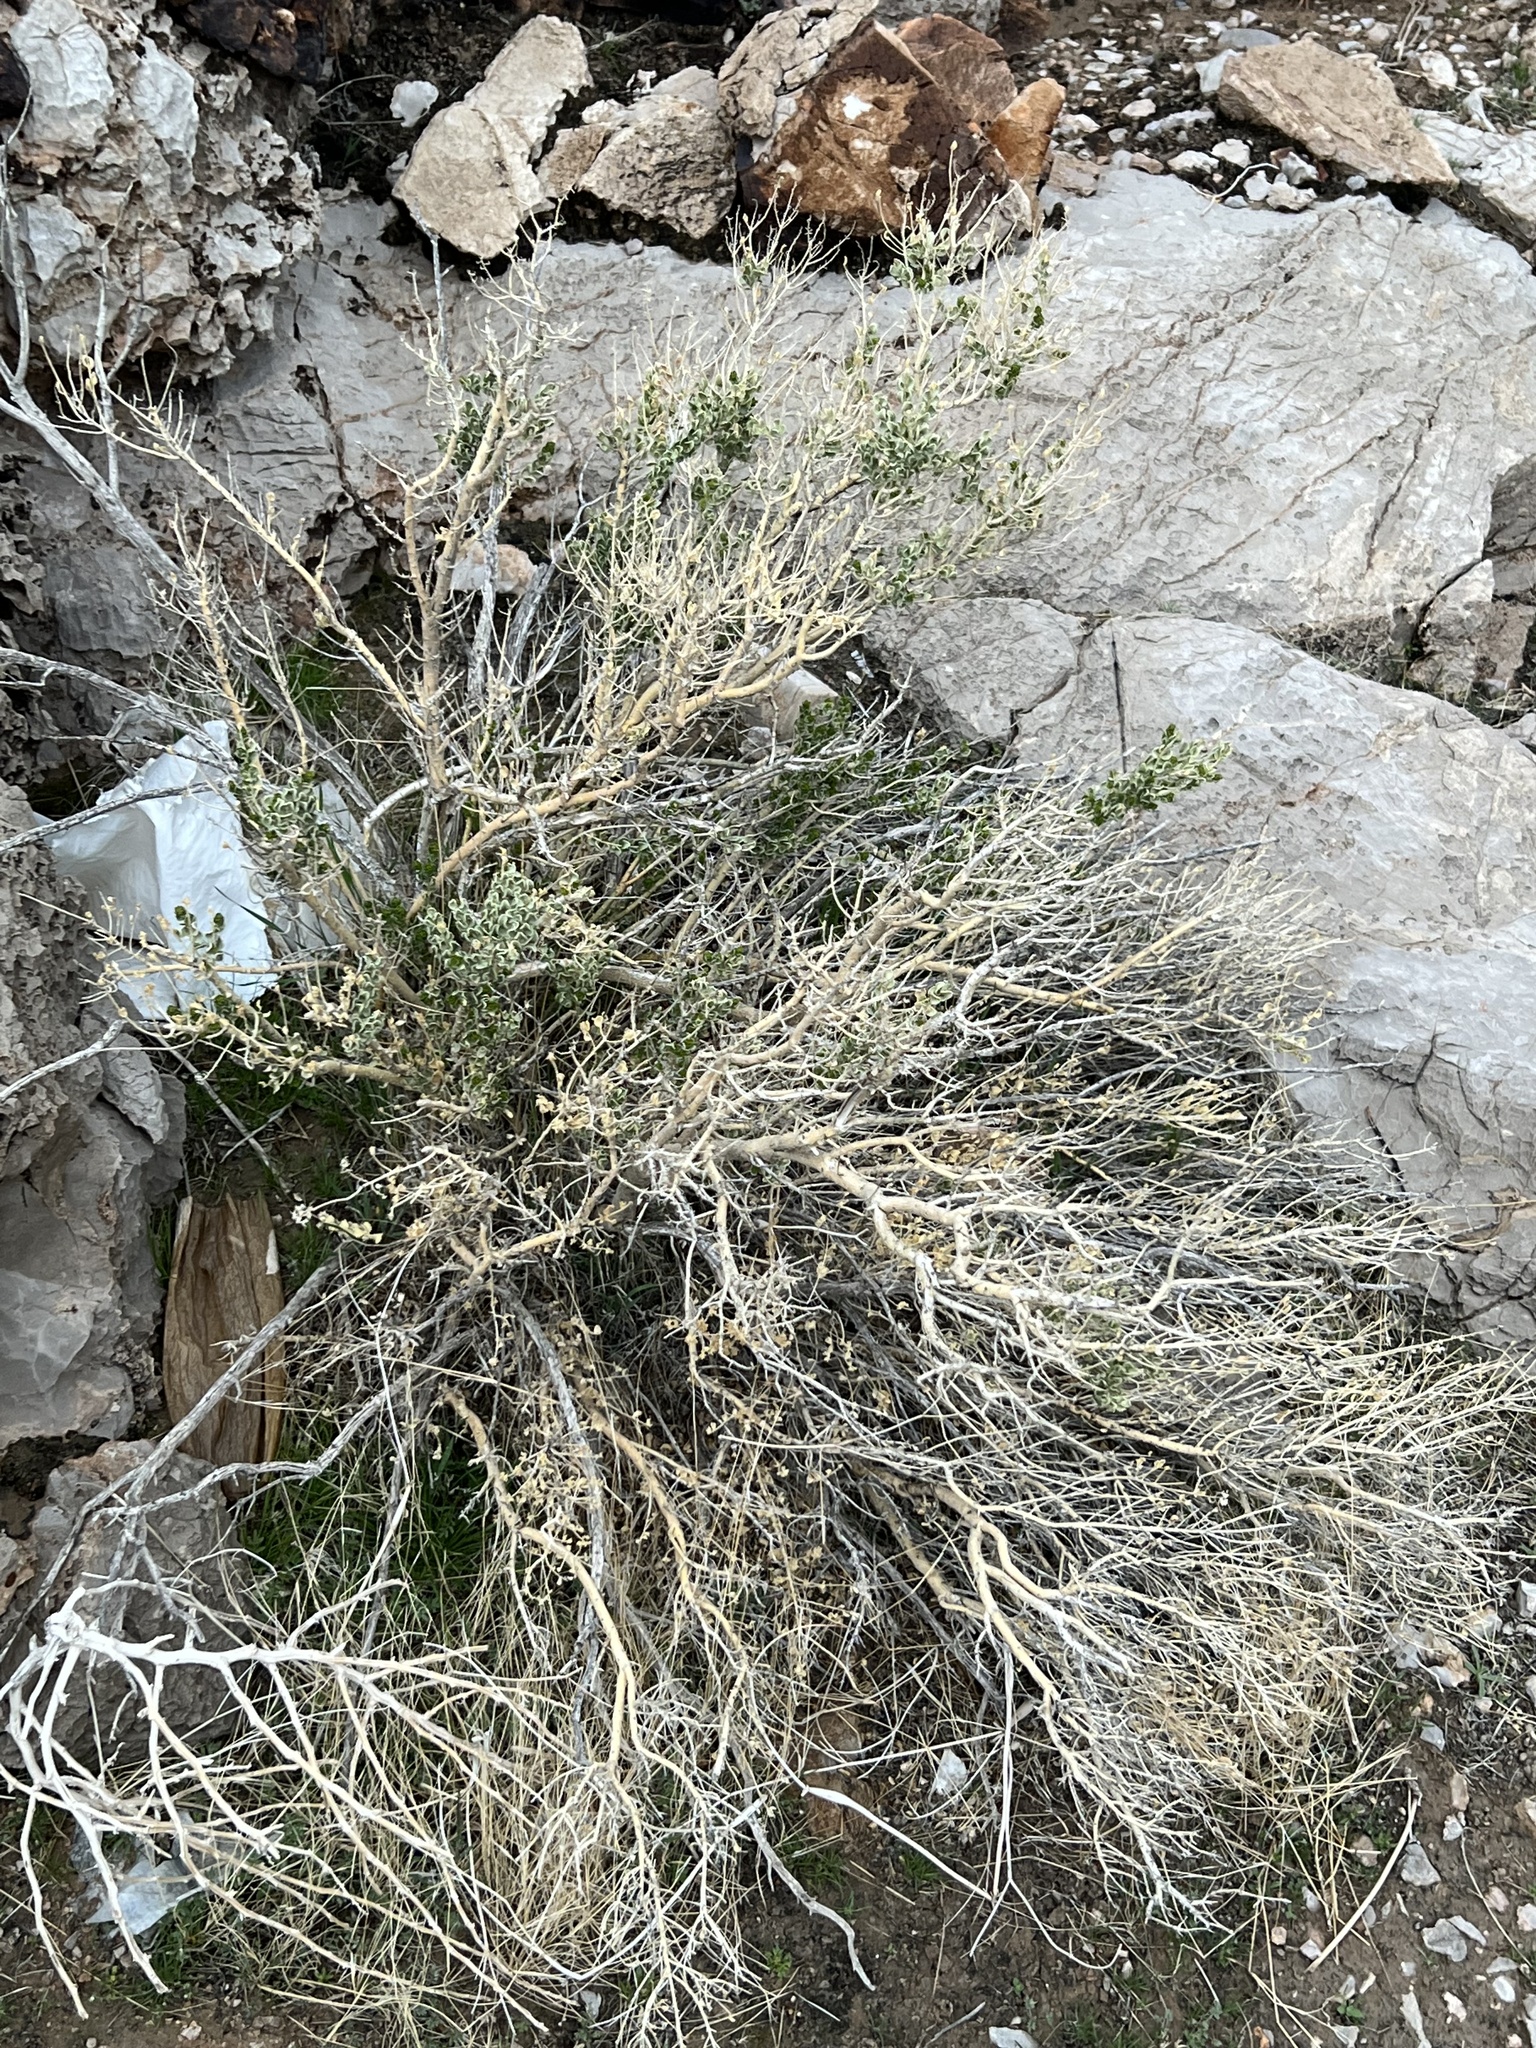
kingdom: Plantae
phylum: Tracheophyta
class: Magnoliopsida
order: Celastrales
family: Celastraceae
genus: Mortonia
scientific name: Mortonia utahensis
